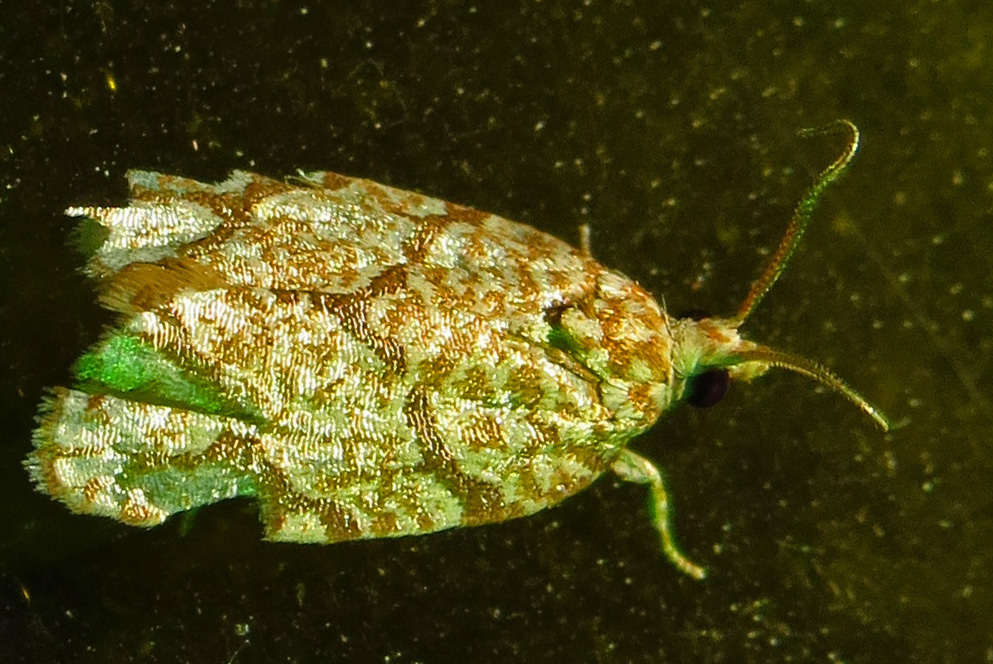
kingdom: Animalia
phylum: Arthropoda
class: Insecta
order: Lepidoptera
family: Tortricidae
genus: Argyrotaenia
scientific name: Argyrotaenia quercifoliana
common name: Yellow-winged oak leafroller moth
